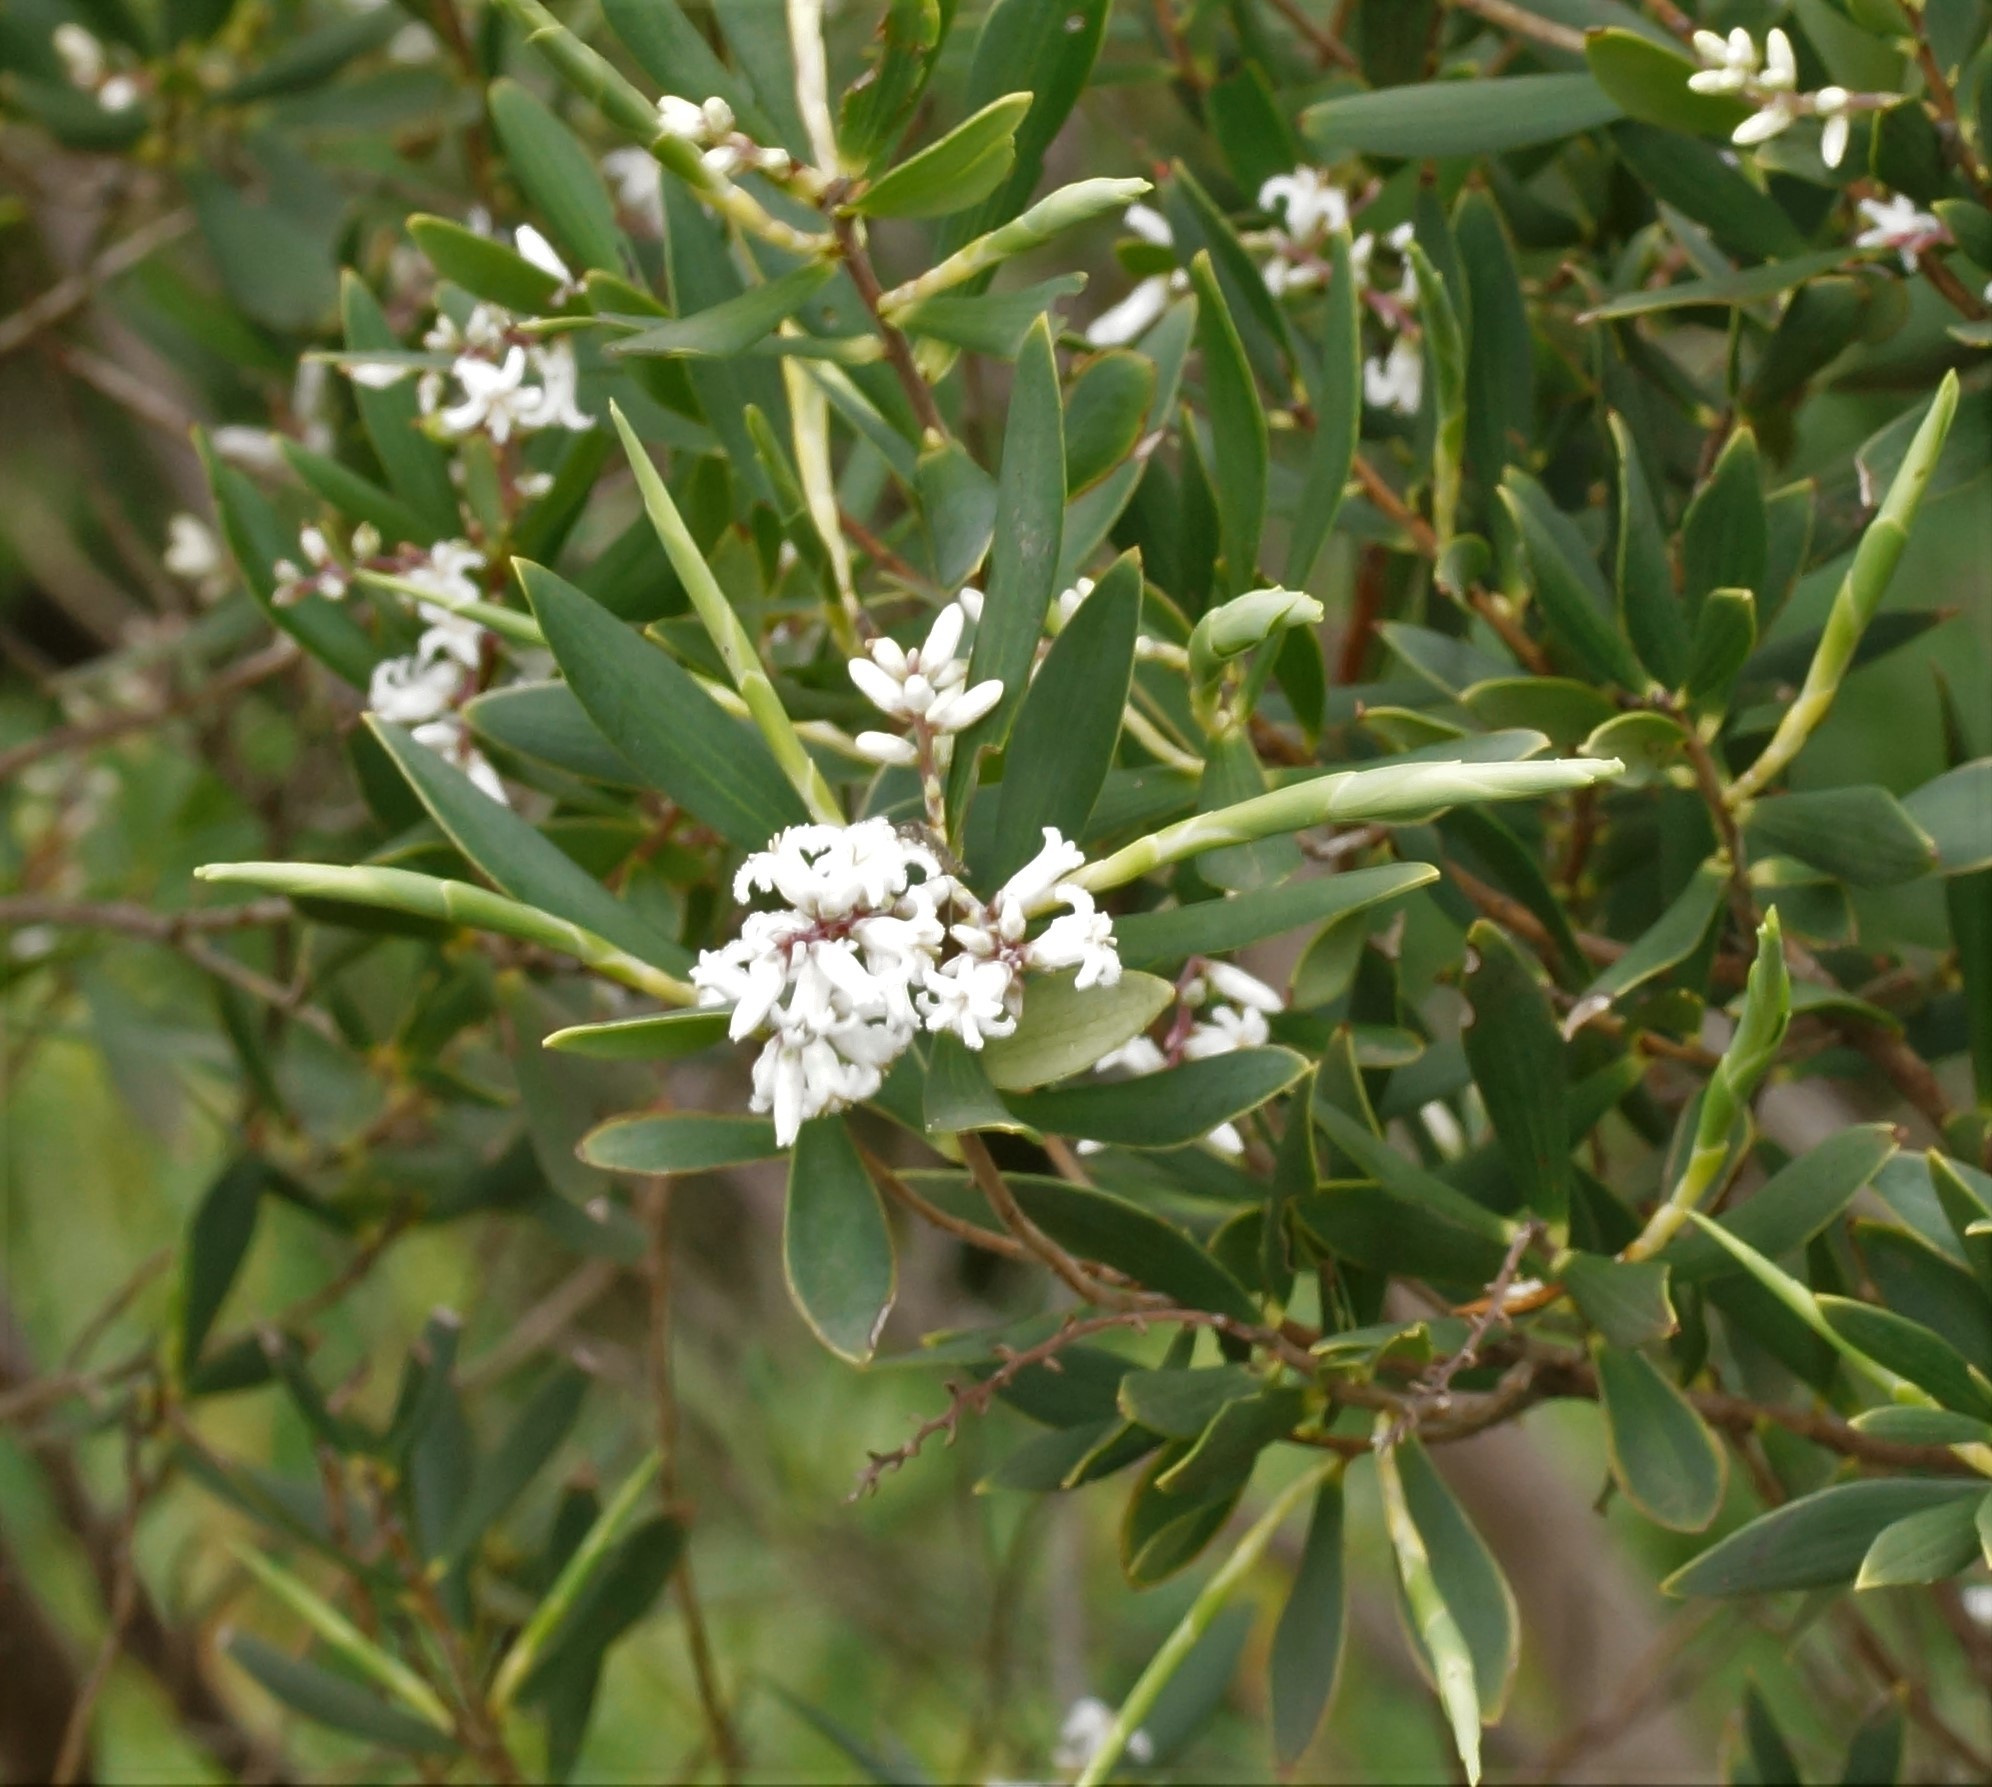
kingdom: Plantae
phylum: Tracheophyta
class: Magnoliopsida
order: Ericales
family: Ericaceae
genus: Leptecophylla
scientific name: Leptecophylla parvifolia
